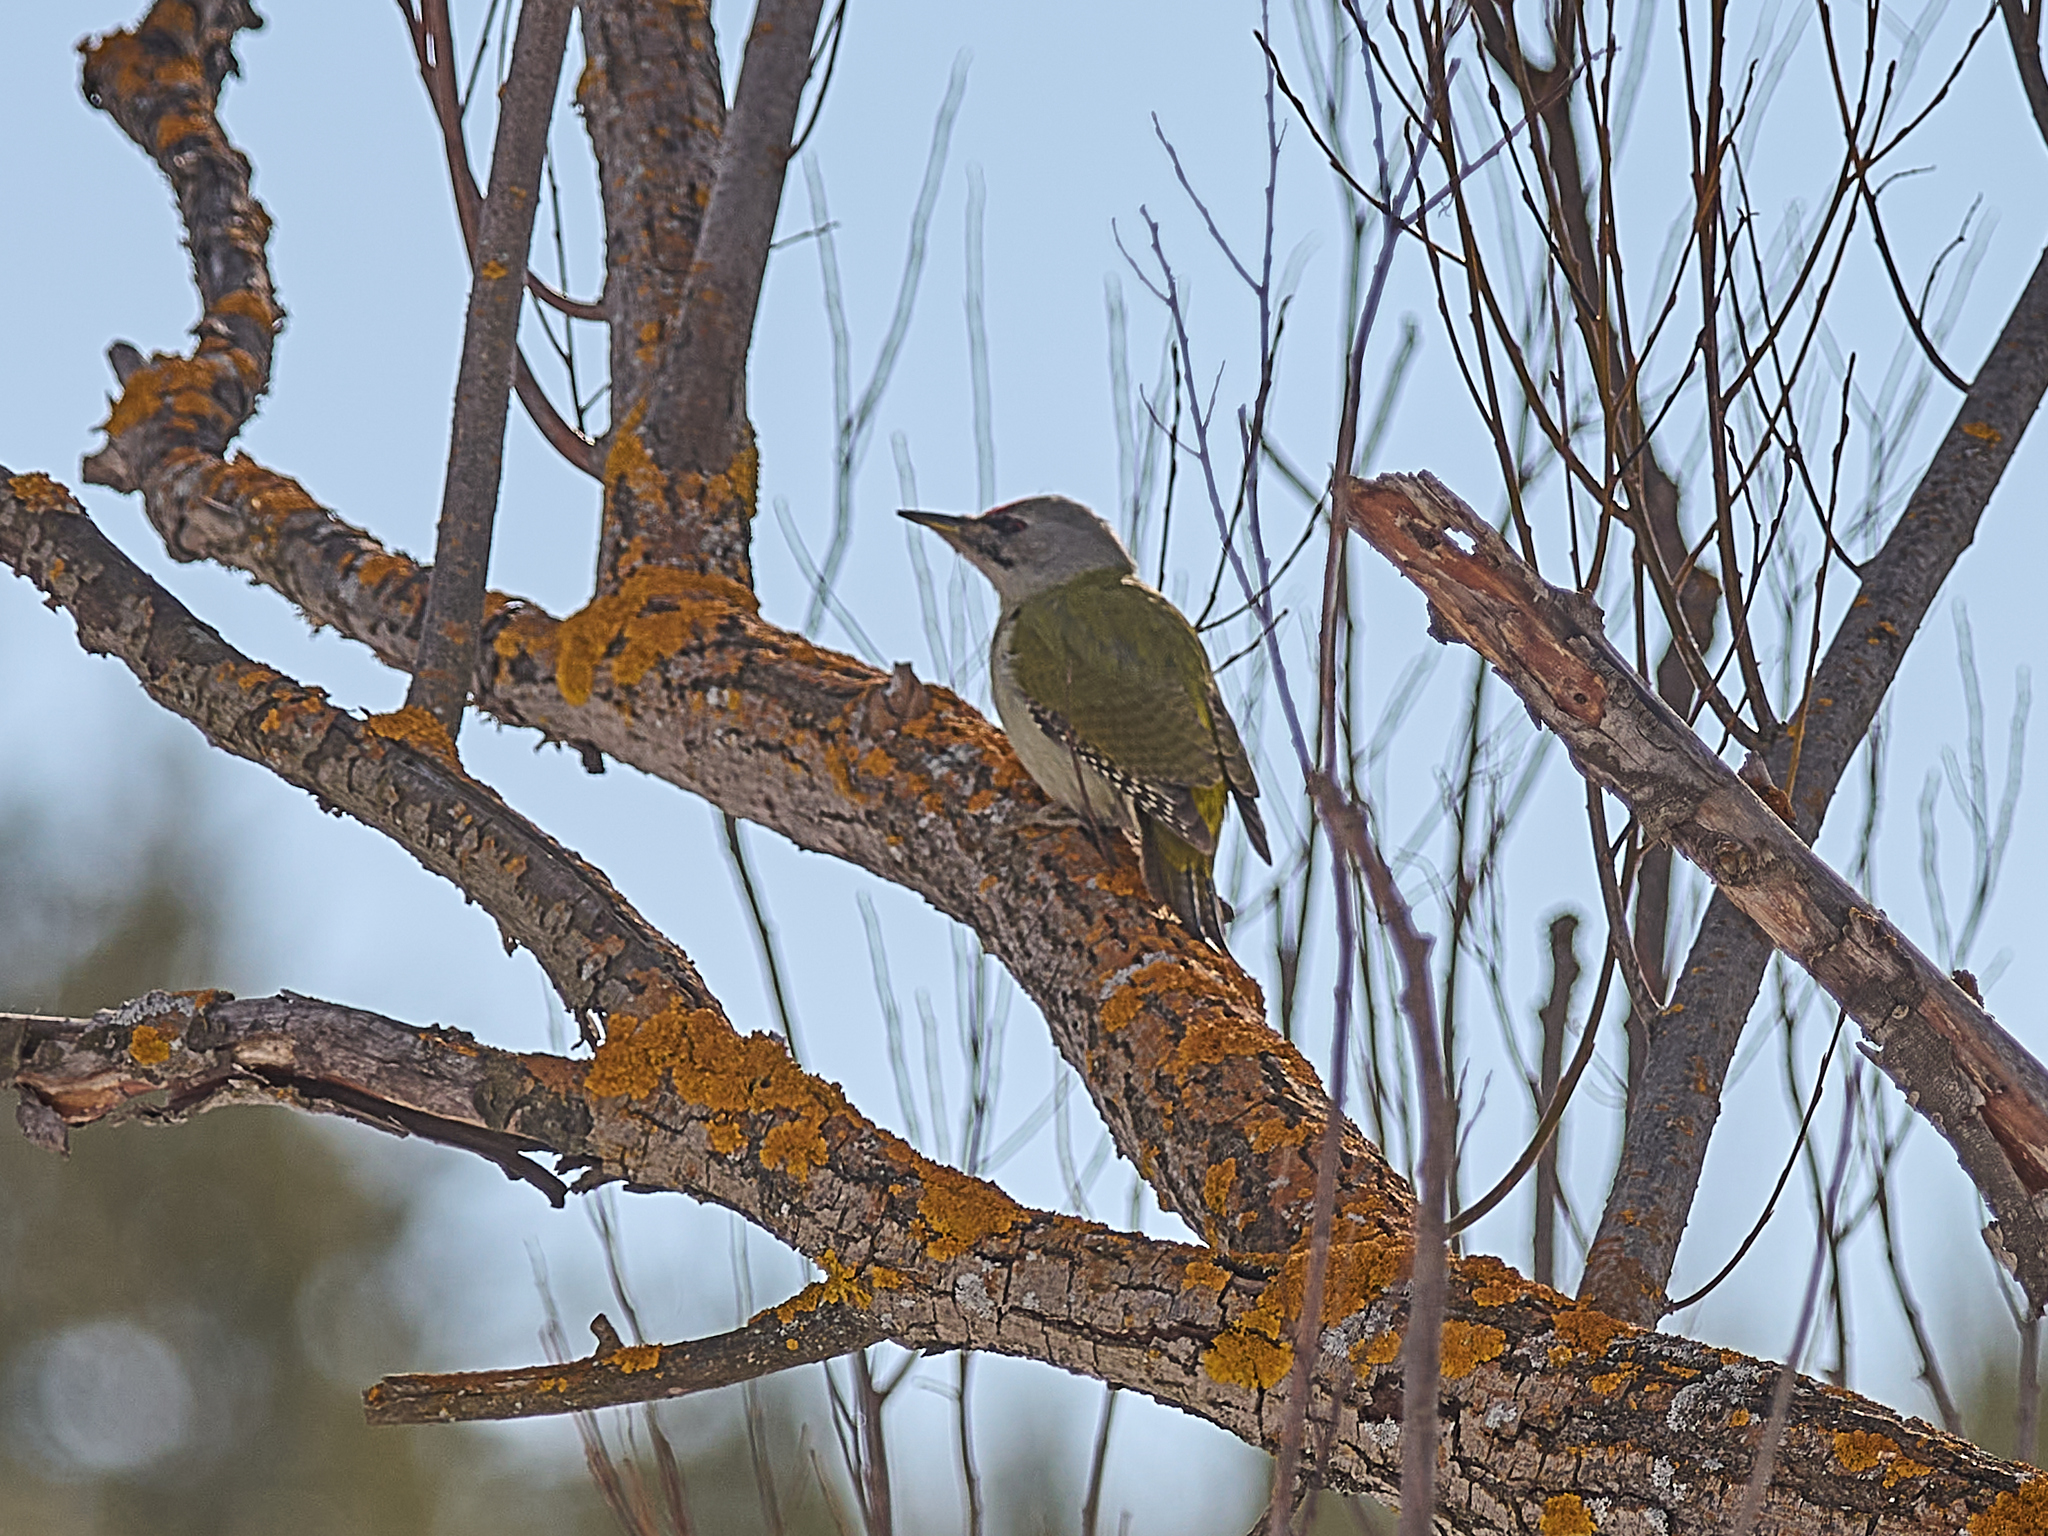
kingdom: Animalia
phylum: Chordata
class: Aves
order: Piciformes
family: Picidae
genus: Picus
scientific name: Picus canus
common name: Grey-headed woodpecker
